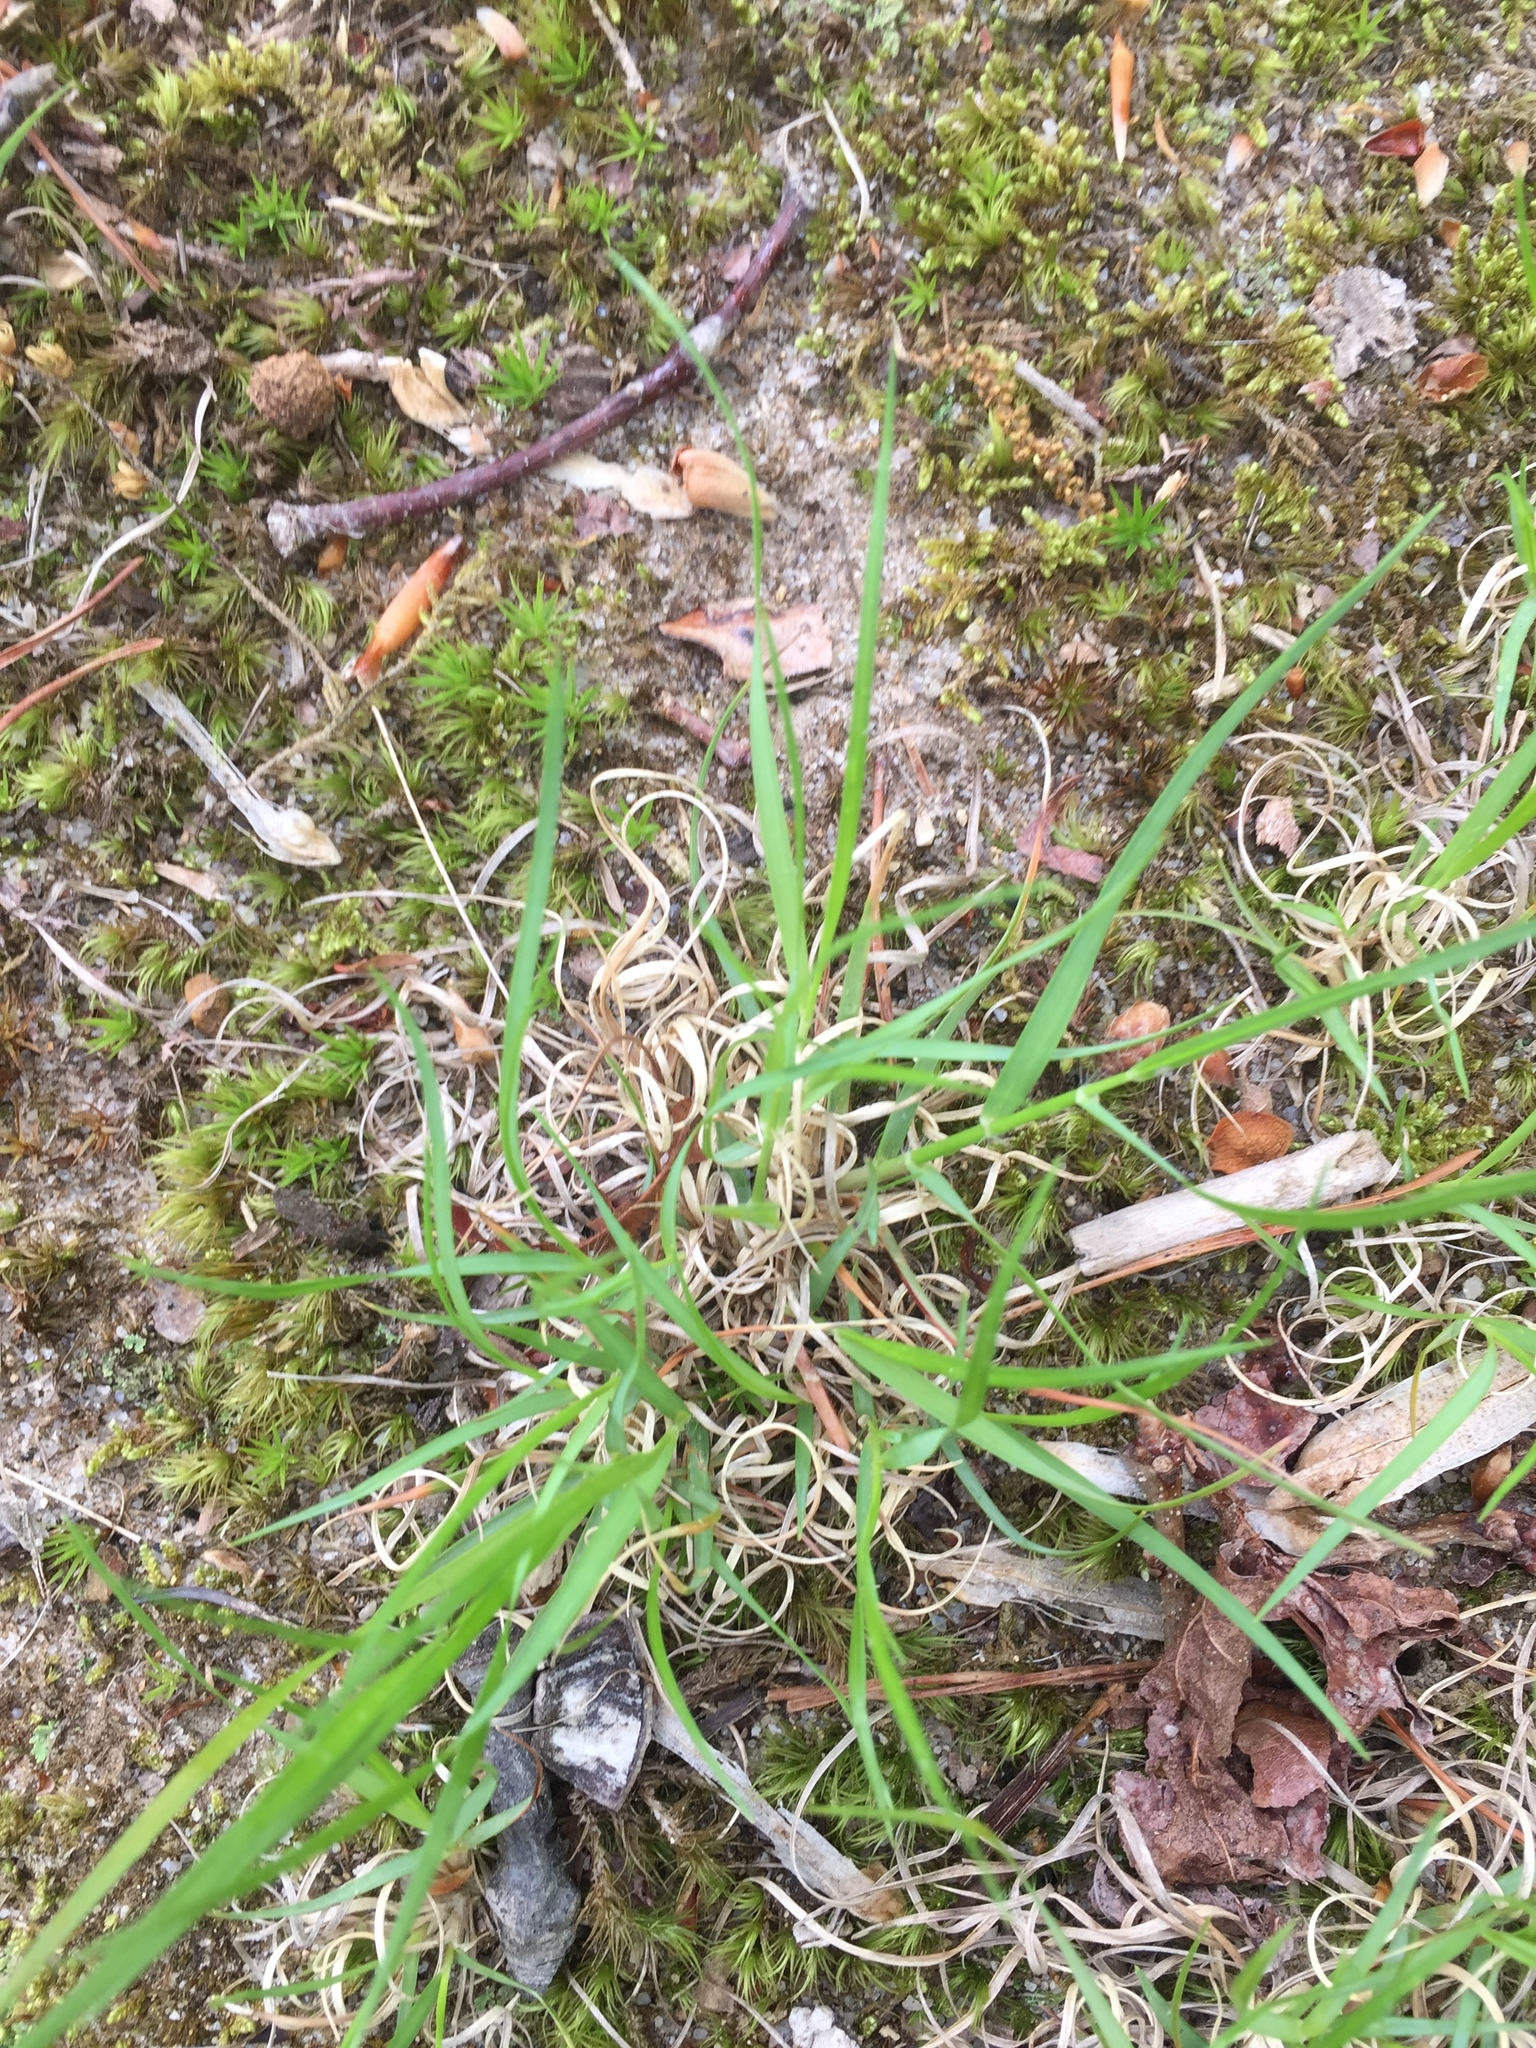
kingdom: Plantae
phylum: Tracheophyta
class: Liliopsida
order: Poales
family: Poaceae
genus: Danthonia
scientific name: Danthonia spicata
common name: Common wild oatgrass
